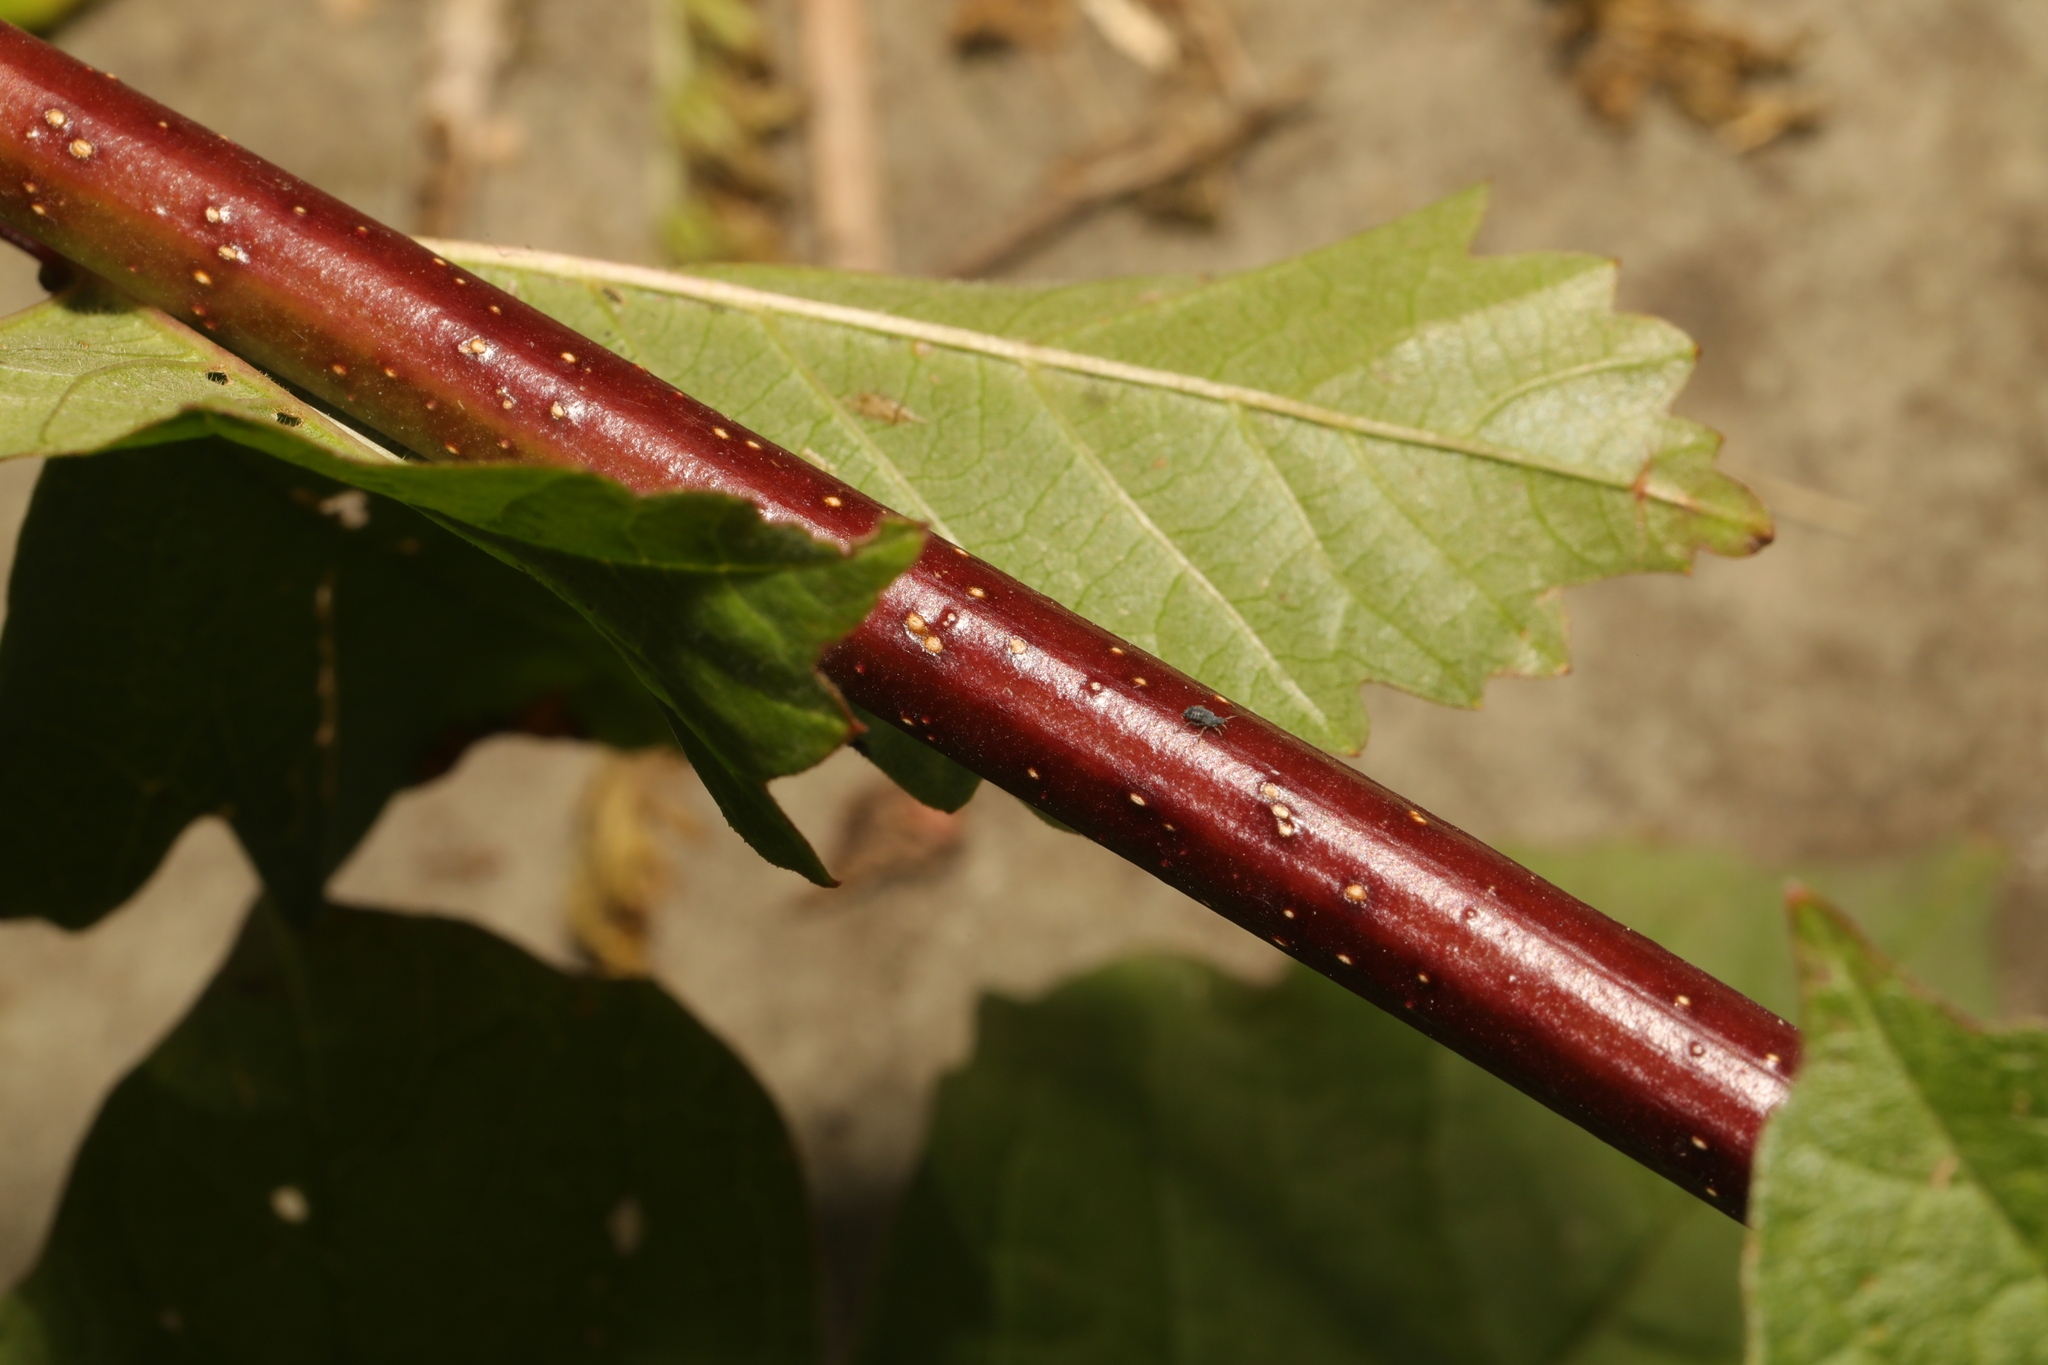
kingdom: Plantae
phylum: Tracheophyta
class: Magnoliopsida
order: Sapindales
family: Sapindaceae
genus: Acer
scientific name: Acer campestre
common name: Field maple
